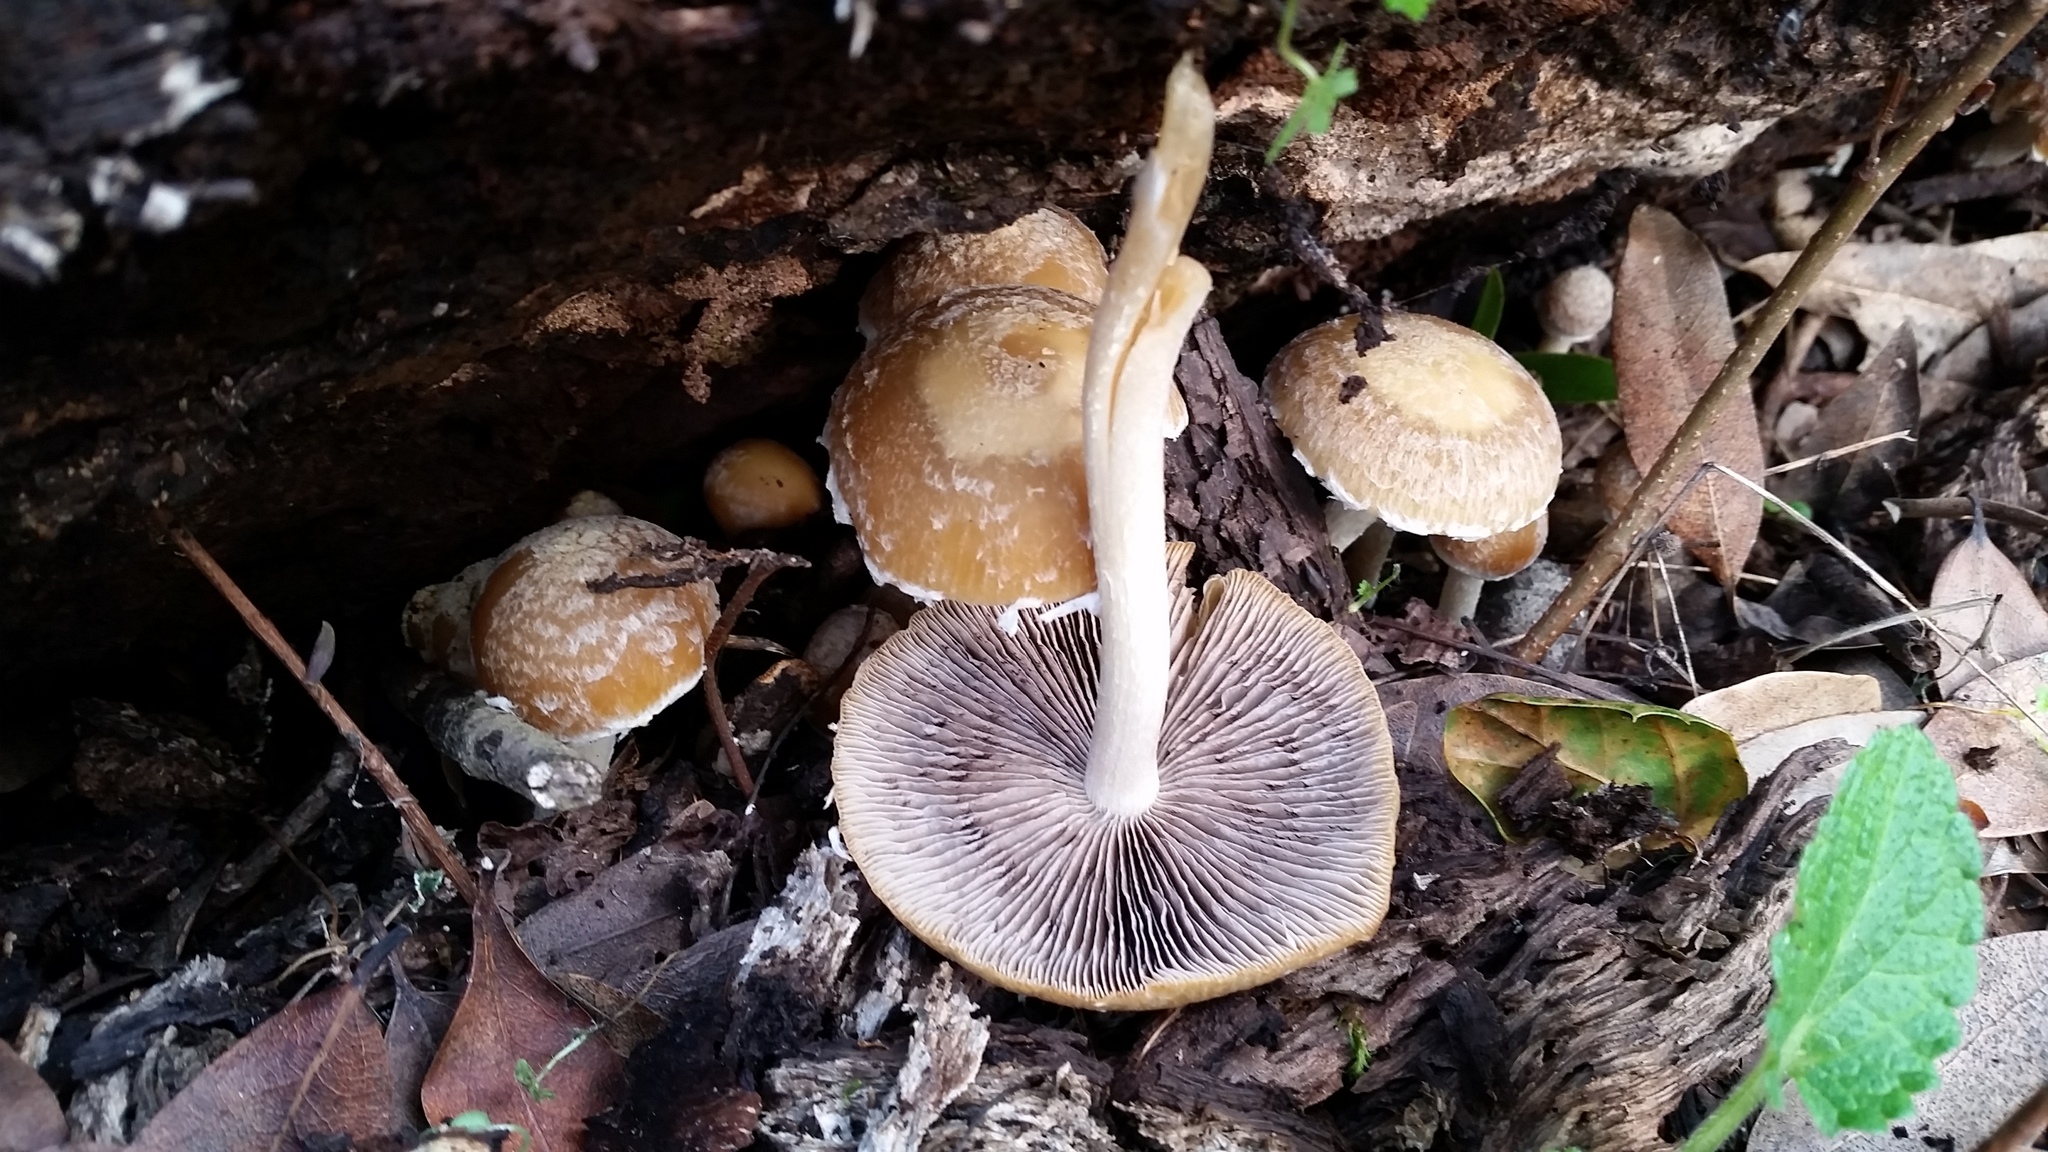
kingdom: Fungi
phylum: Basidiomycota
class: Agaricomycetes
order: Agaricales
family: Psathyrellaceae
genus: Candolleomyces
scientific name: Candolleomyces candolleanus
